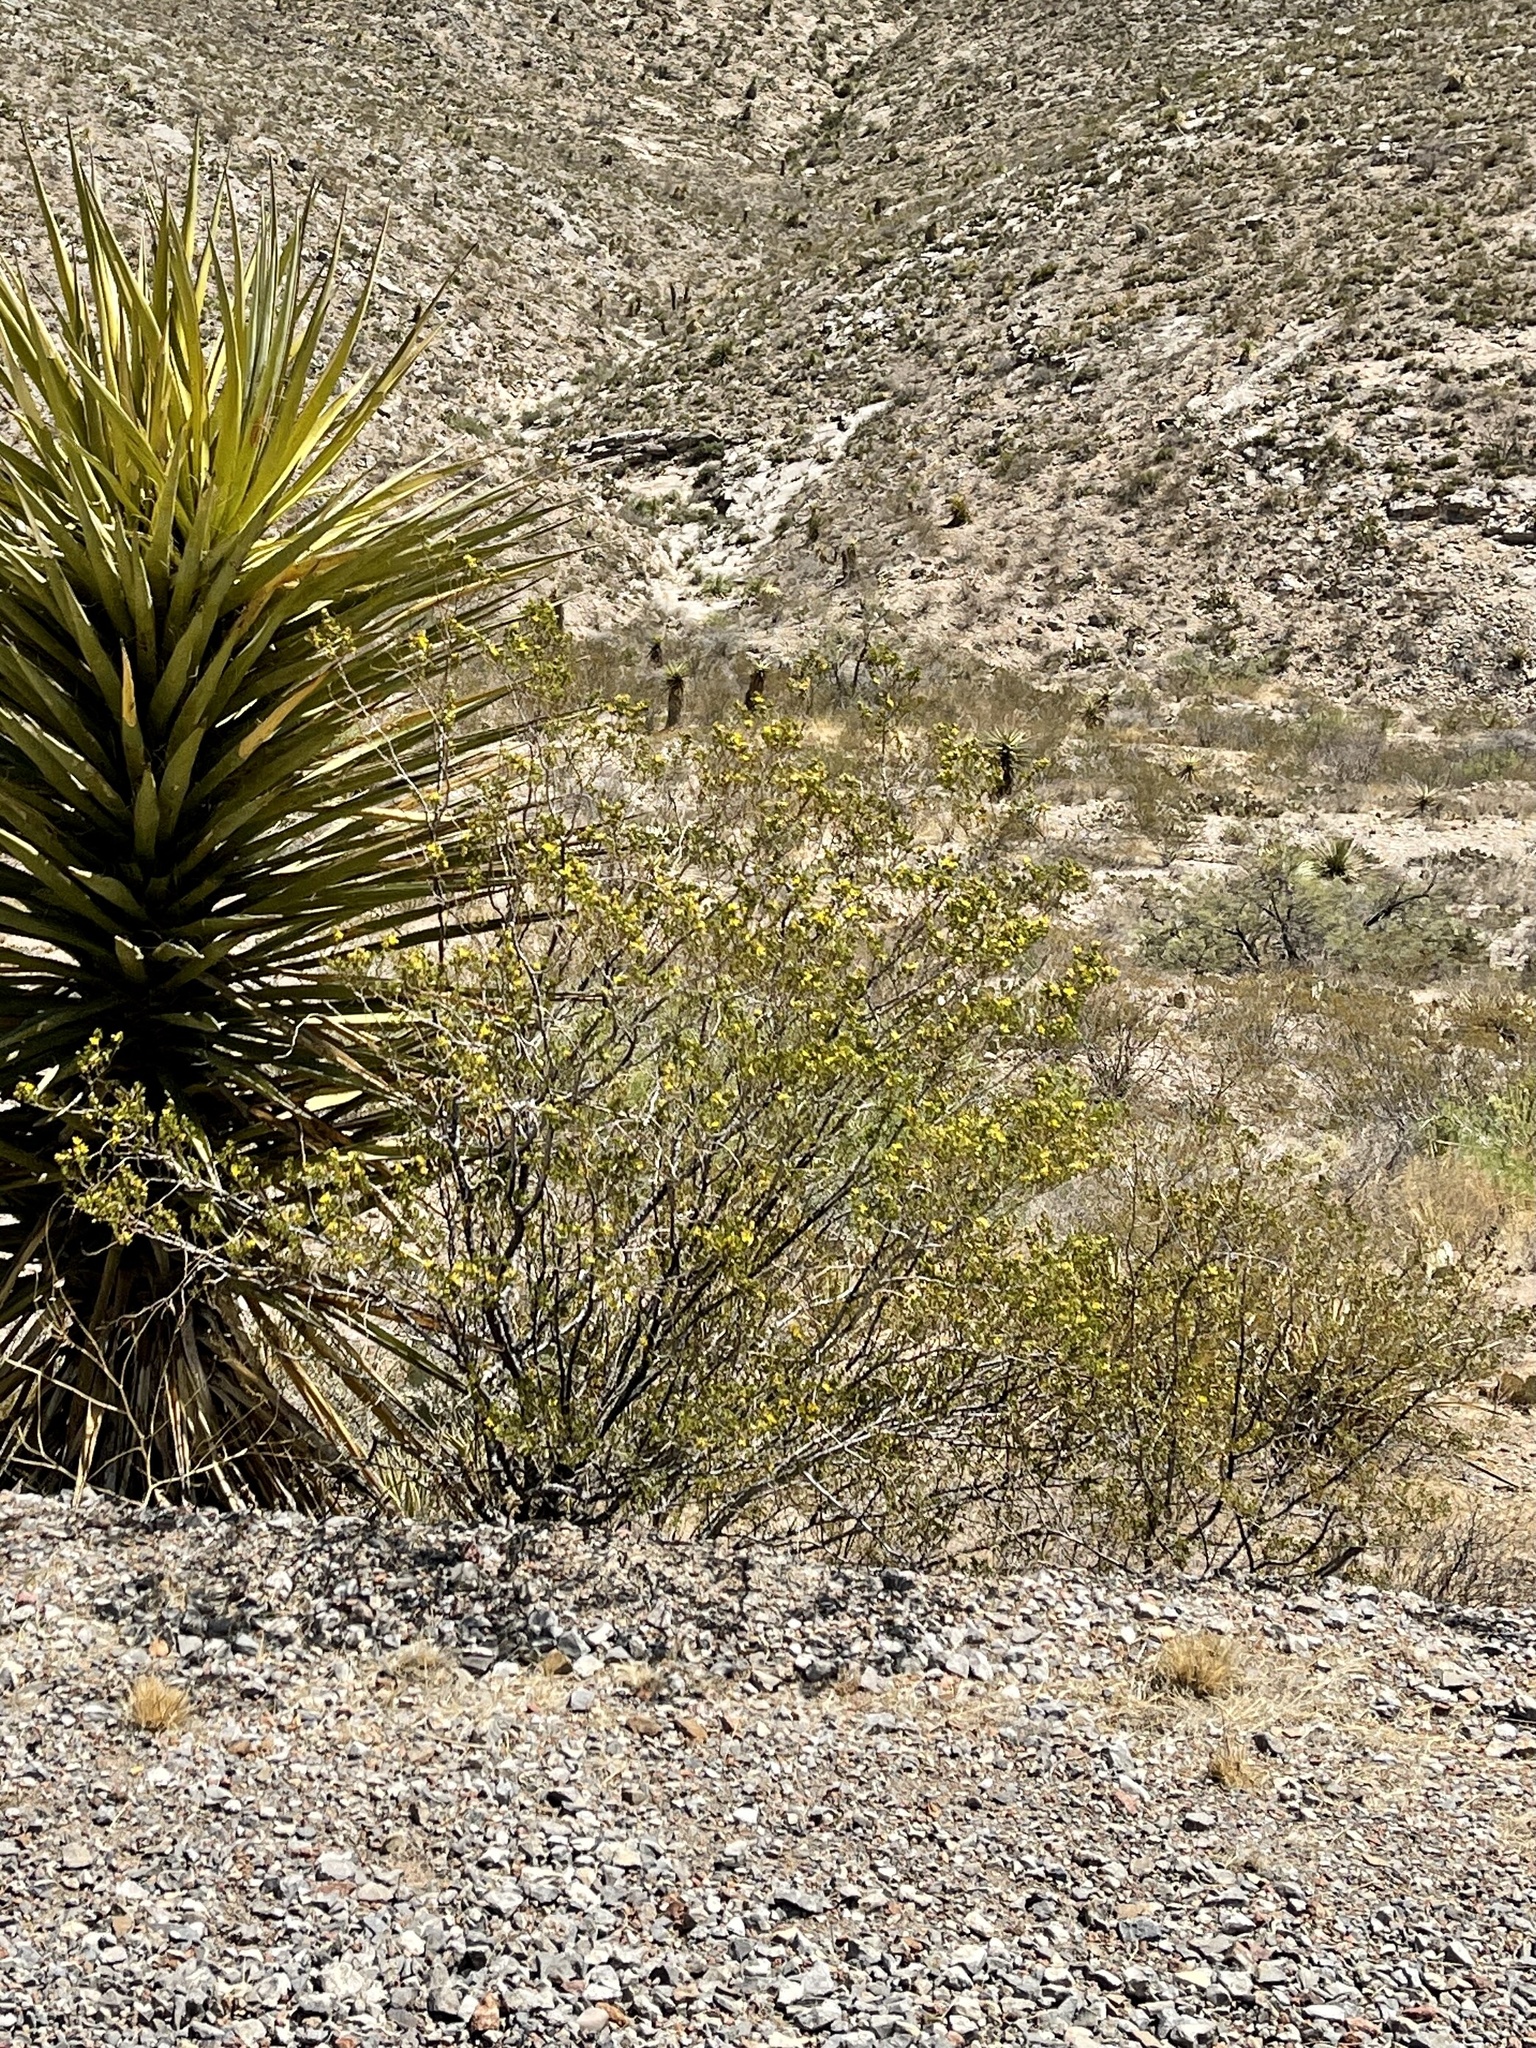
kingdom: Plantae
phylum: Tracheophyta
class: Magnoliopsida
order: Zygophyllales
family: Zygophyllaceae
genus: Larrea
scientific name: Larrea tridentata
